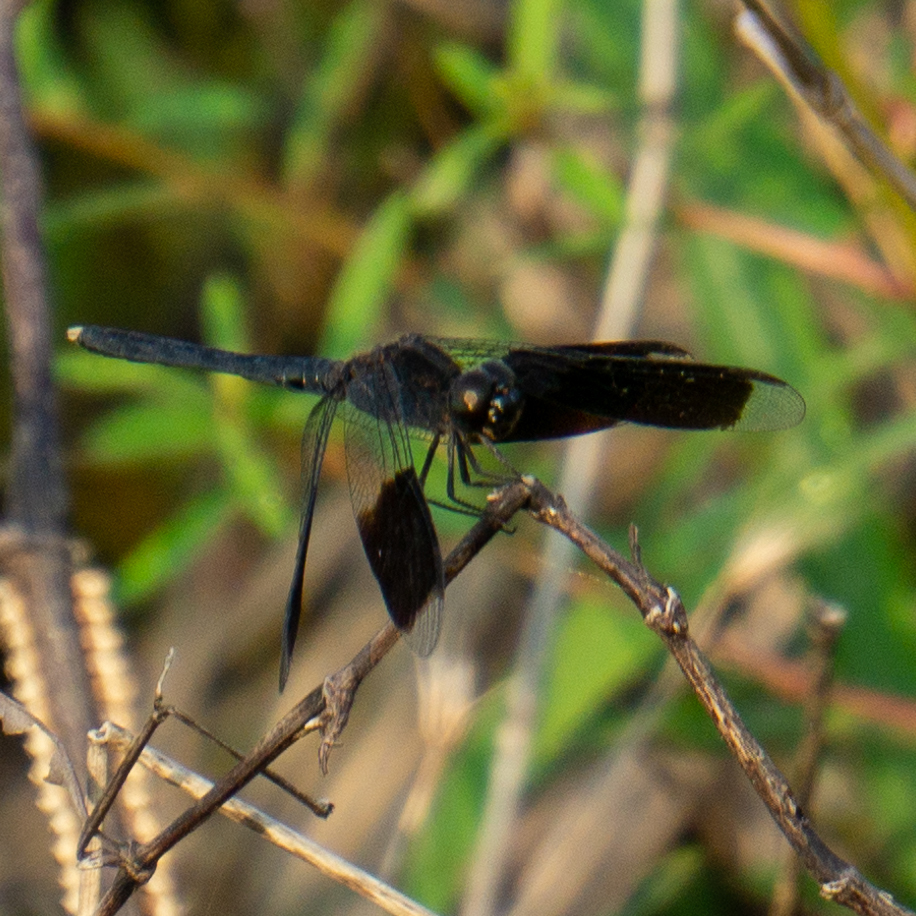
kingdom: Animalia
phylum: Arthropoda
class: Insecta
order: Odonata
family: Libellulidae
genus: Erythrodiplax
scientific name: Erythrodiplax umbrata
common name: Band-winged dragonlet
